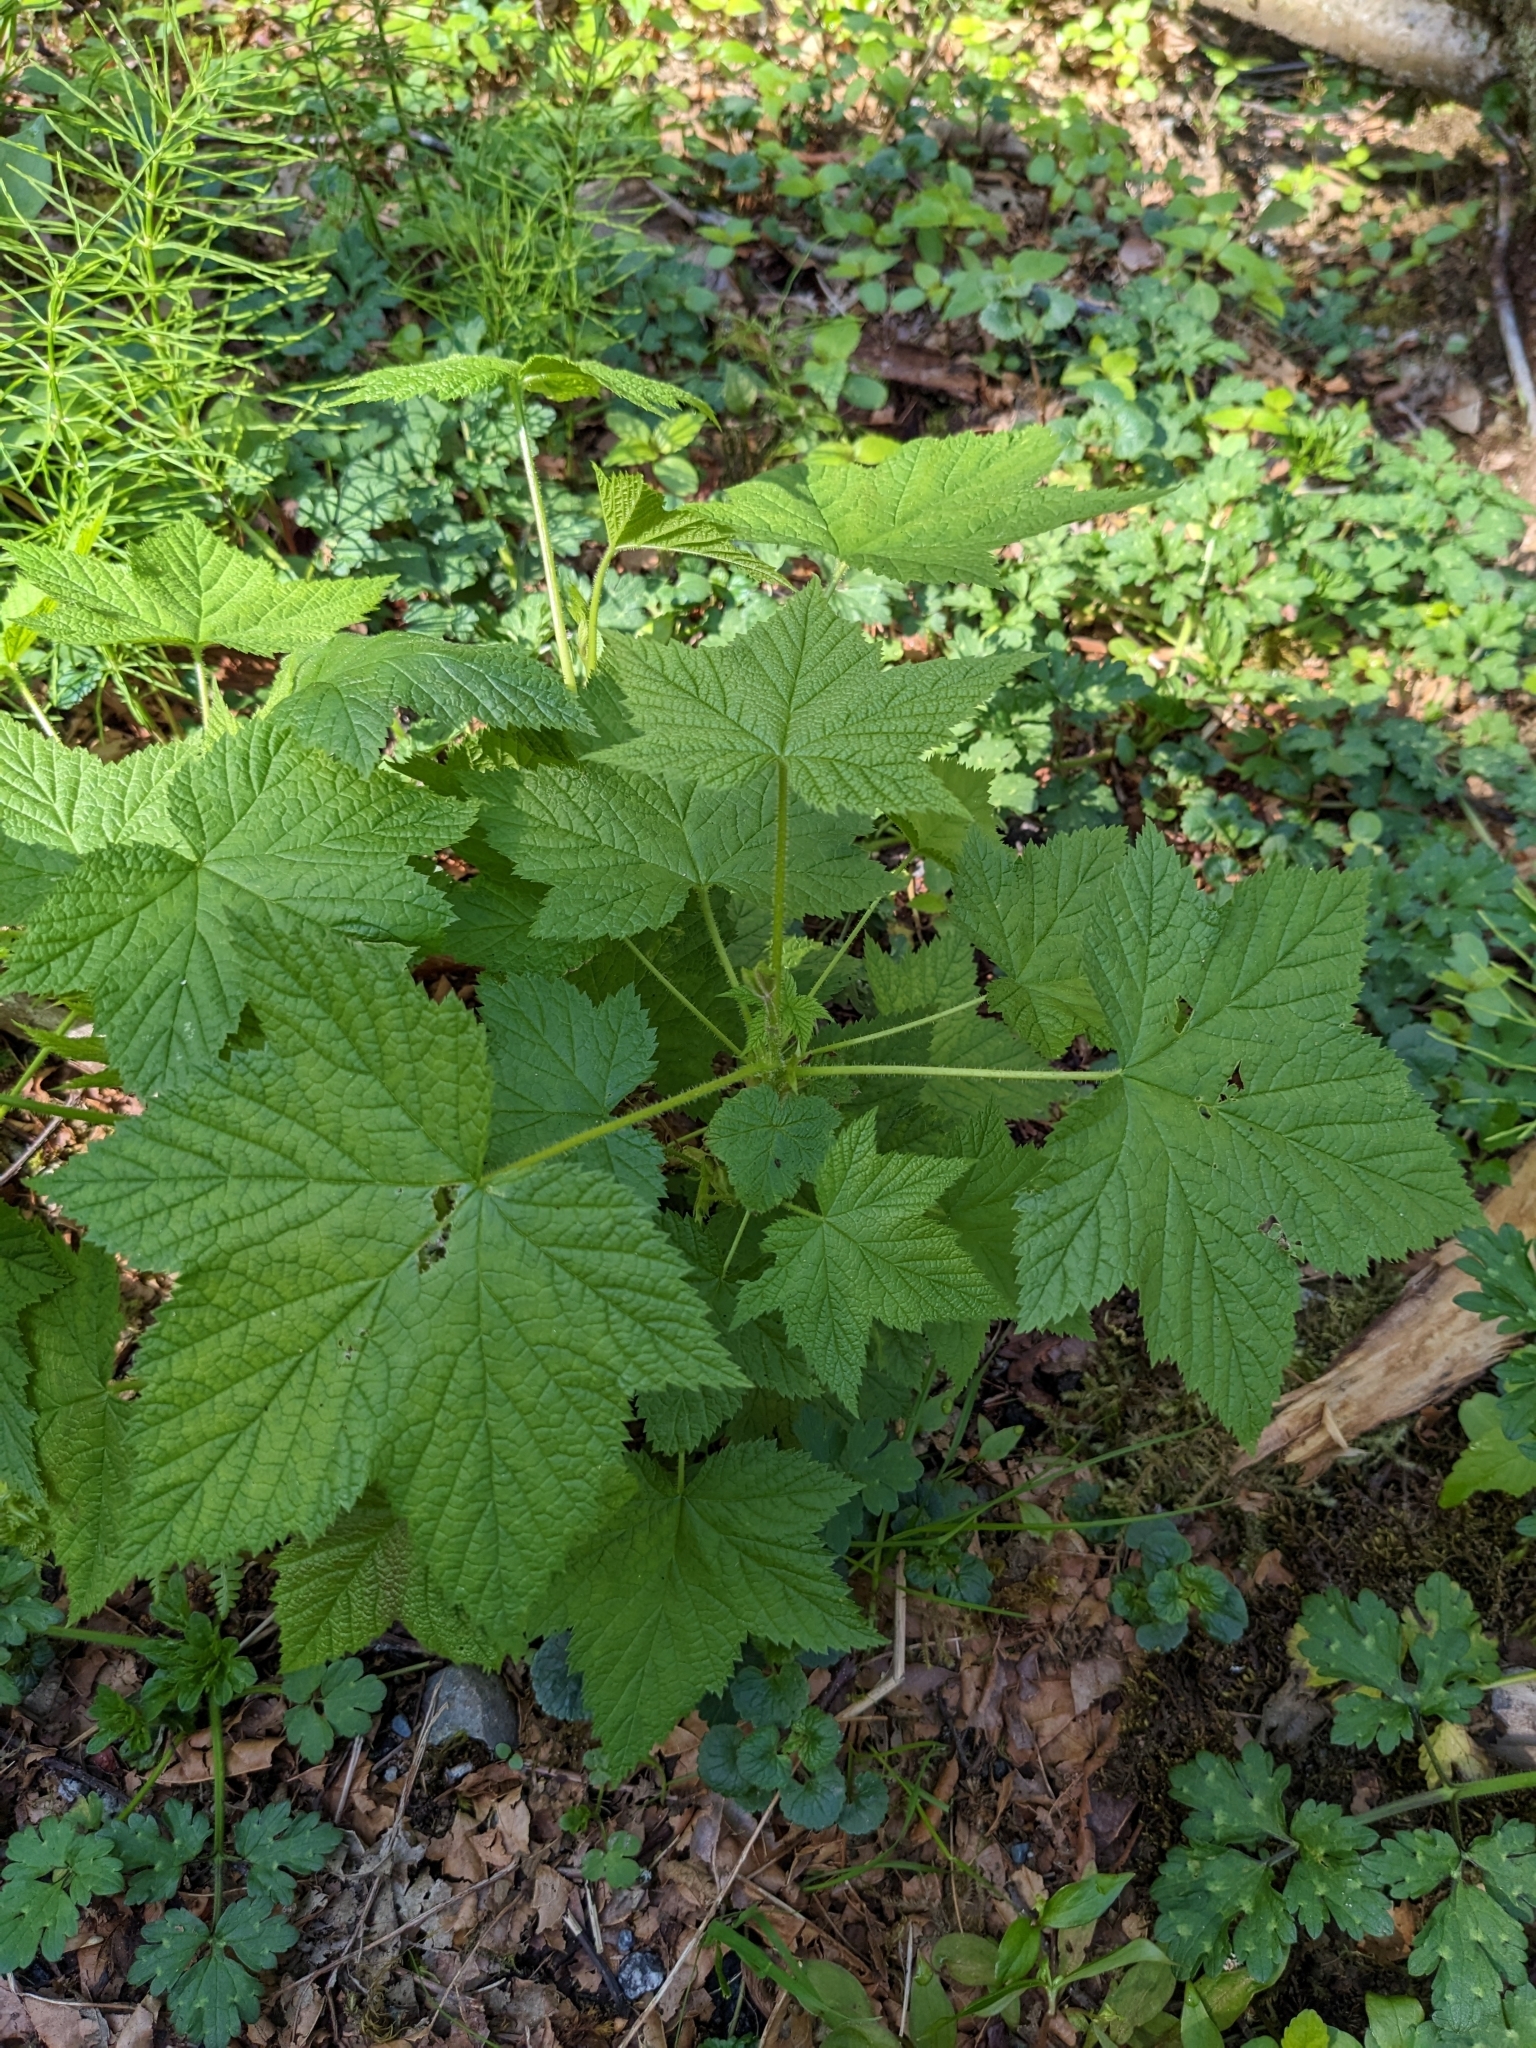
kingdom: Plantae
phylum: Tracheophyta
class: Magnoliopsida
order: Rosales
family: Rosaceae
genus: Rubus
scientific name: Rubus parviflorus
